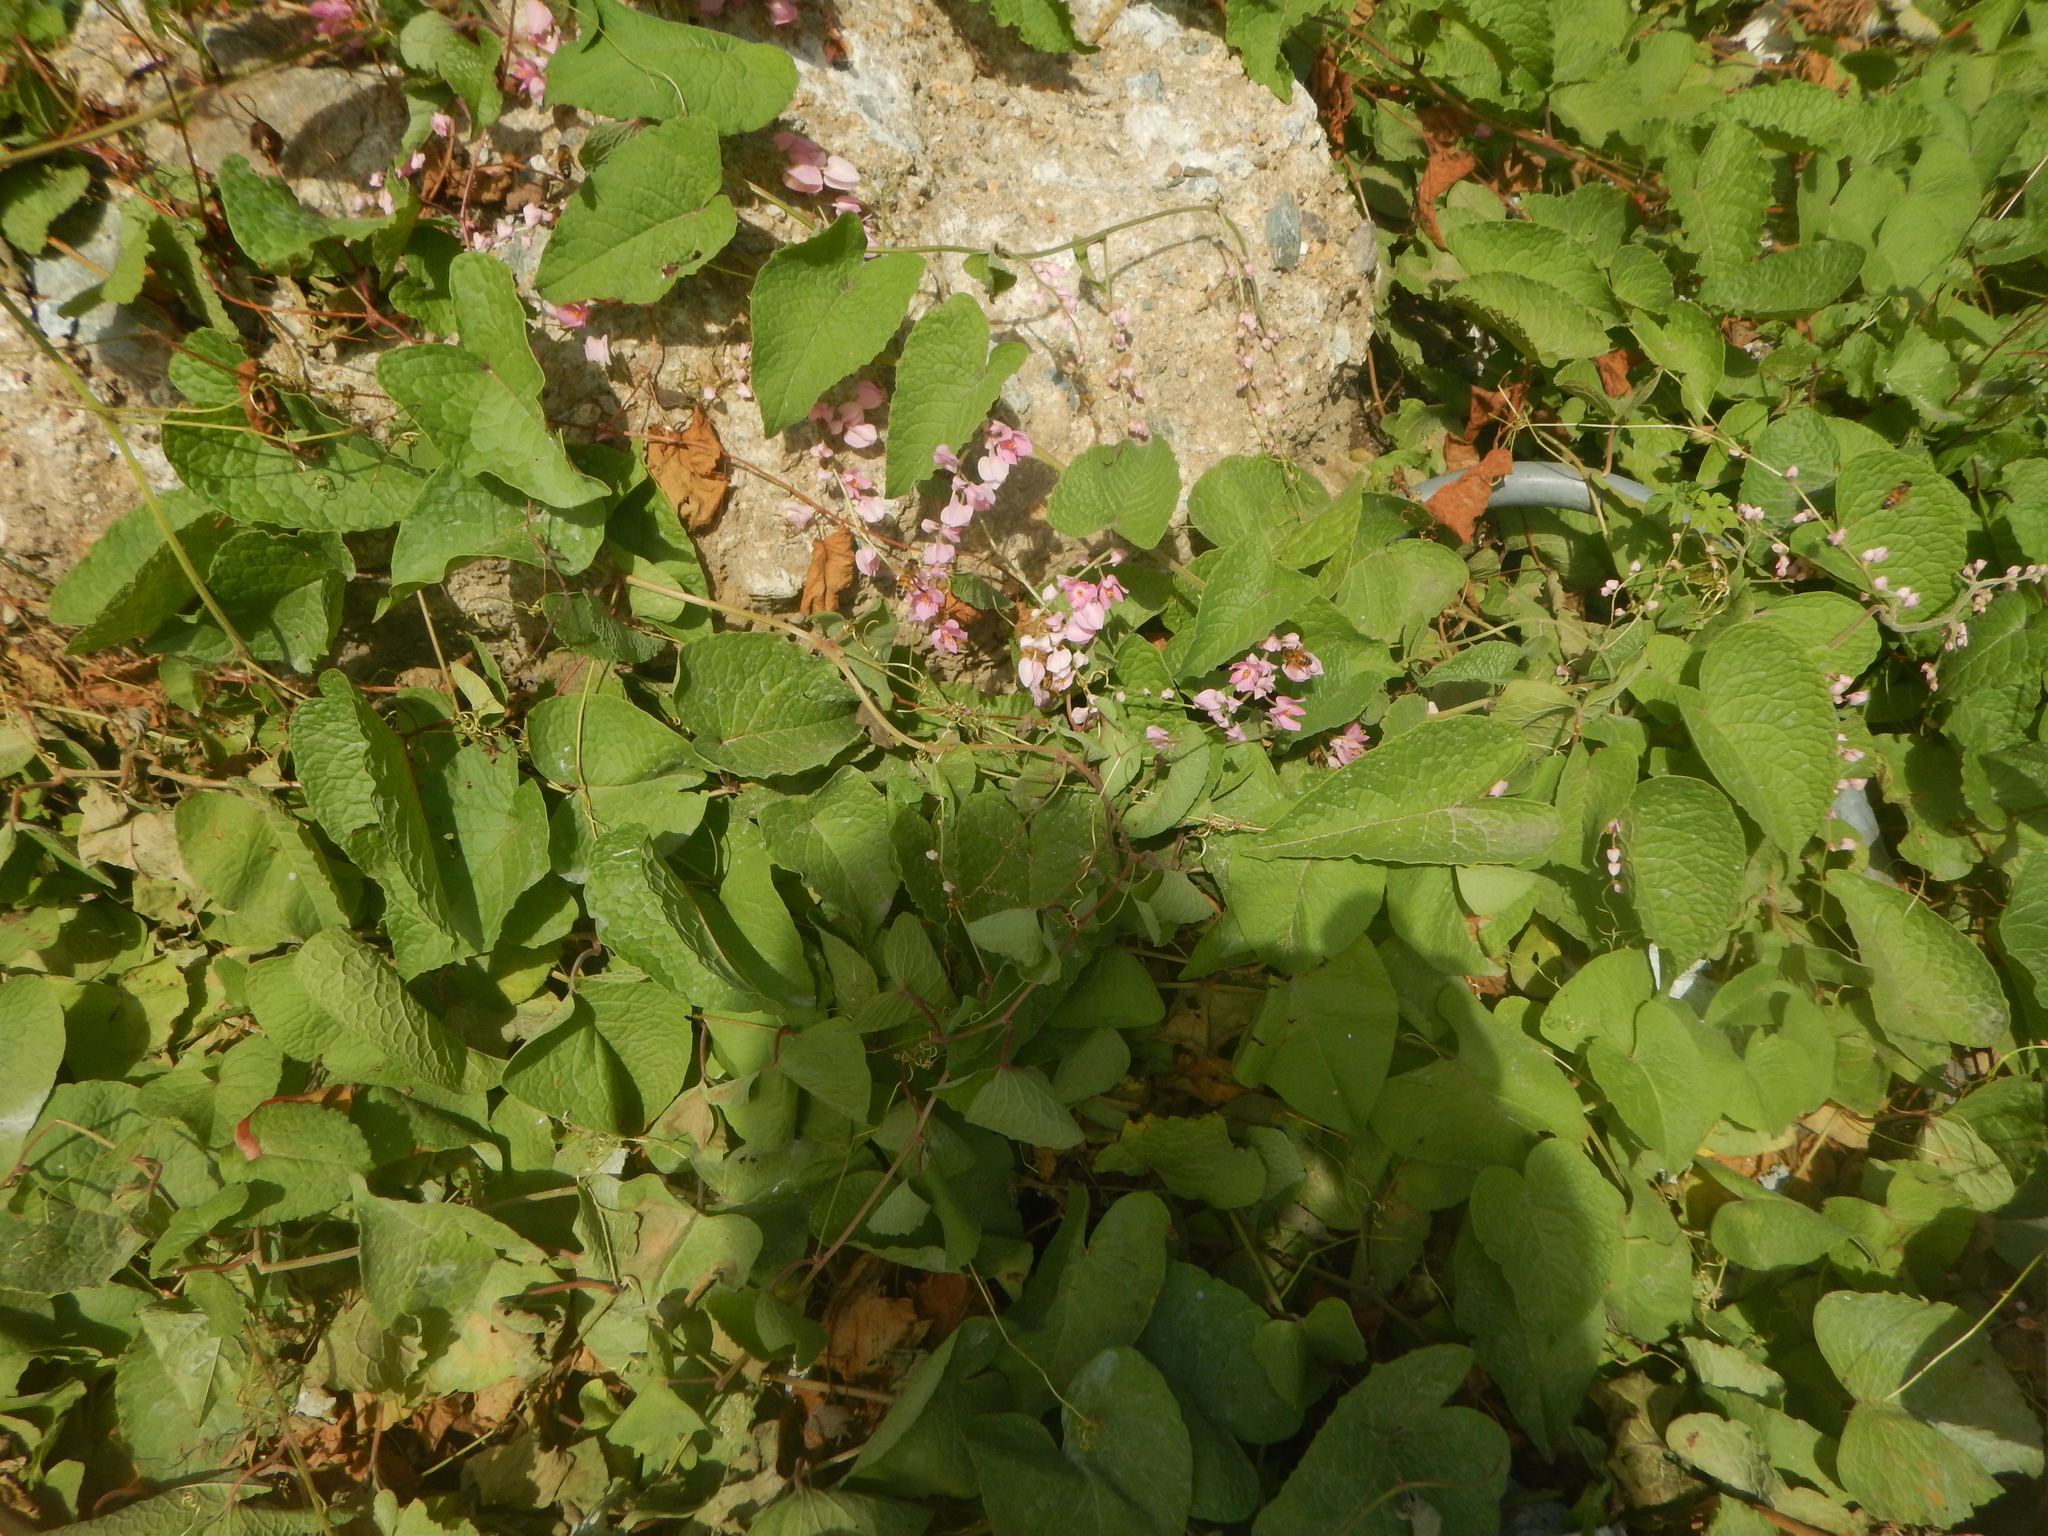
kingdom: Plantae
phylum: Tracheophyta
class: Magnoliopsida
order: Caryophyllales
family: Polygonaceae
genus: Antigonon
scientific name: Antigonon leptopus
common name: Coral vine
